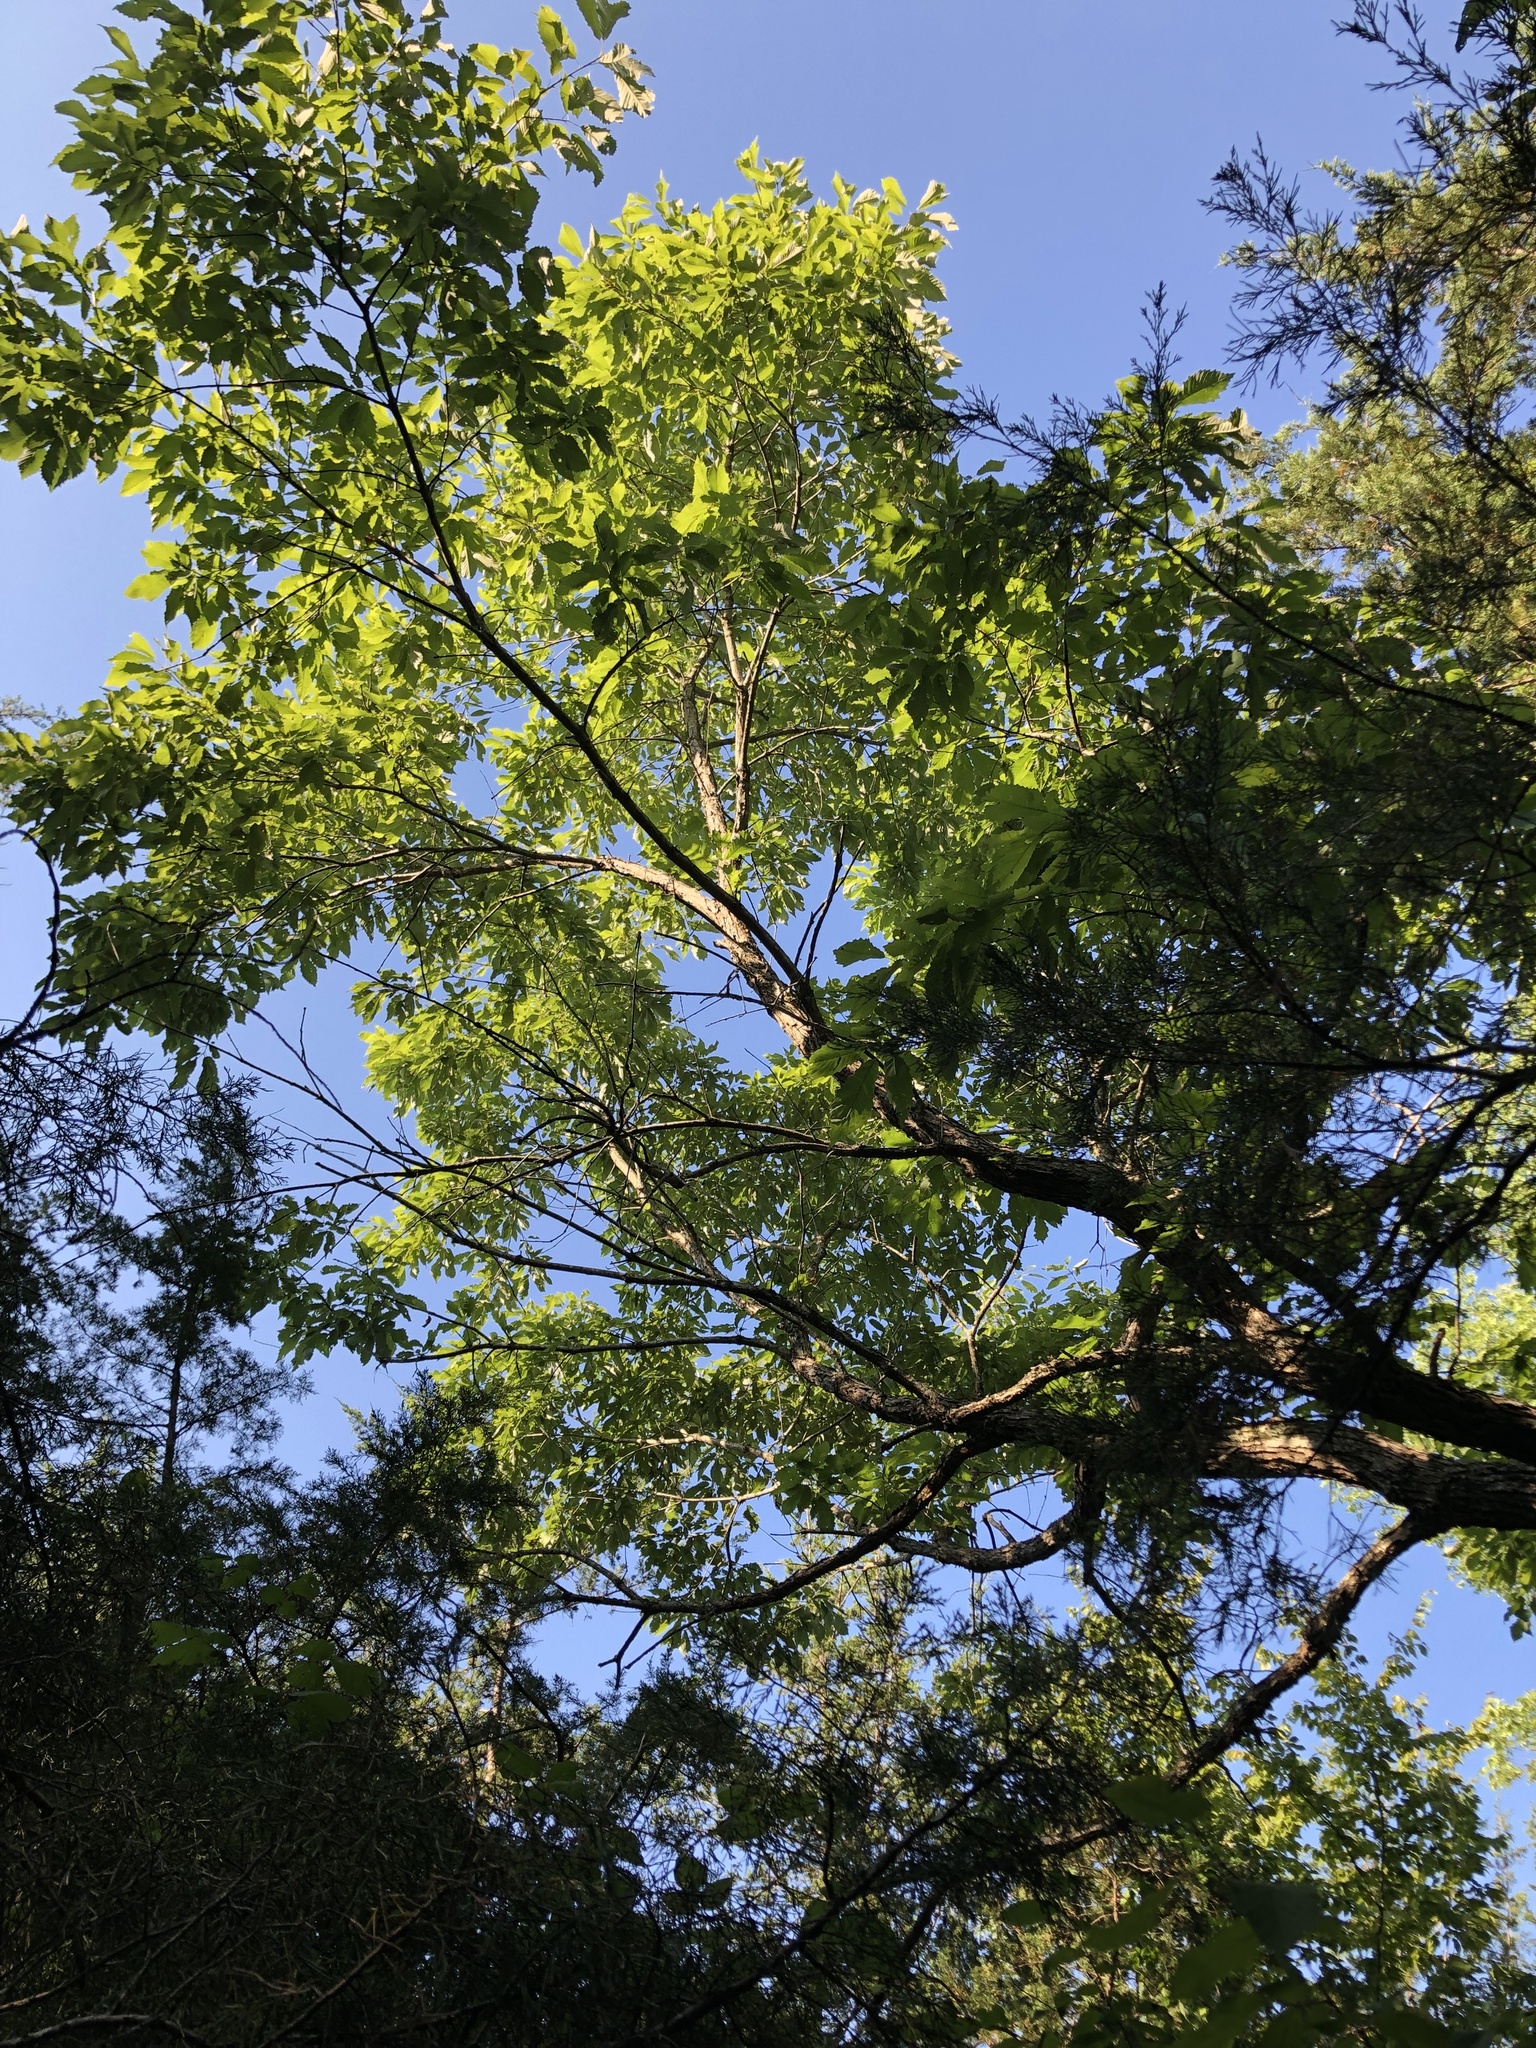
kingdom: Plantae
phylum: Tracheophyta
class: Magnoliopsida
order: Fagales
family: Fagaceae
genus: Quercus
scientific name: Quercus muehlenbergii
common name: Chinkapin oak
